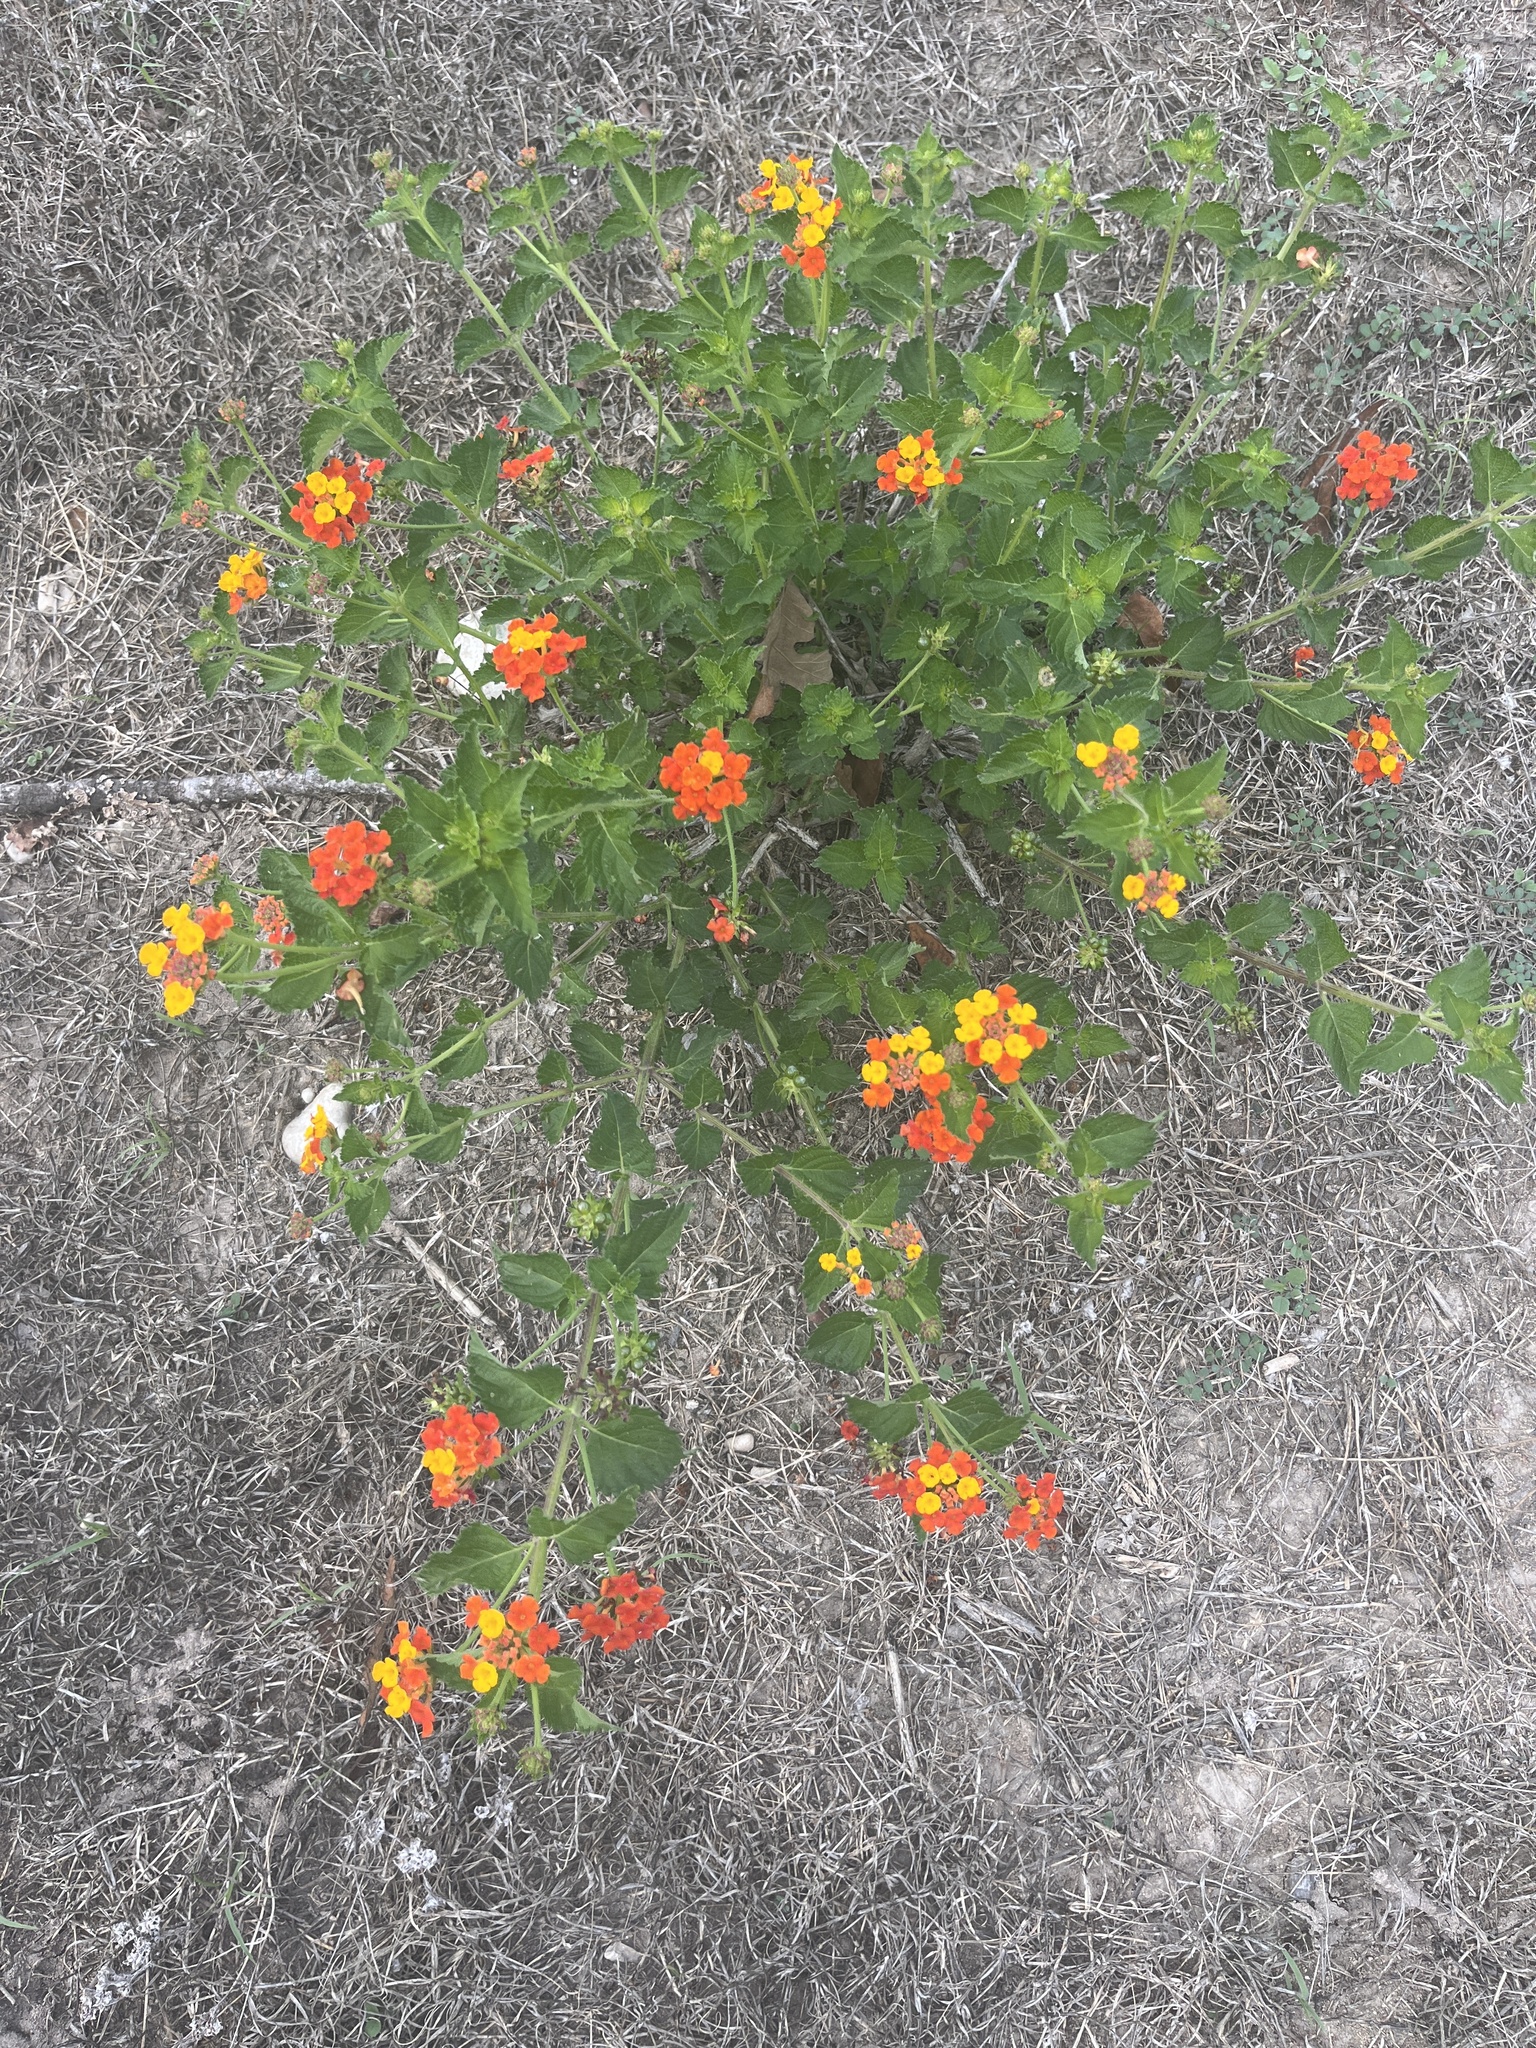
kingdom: Plantae
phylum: Tracheophyta
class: Magnoliopsida
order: Lamiales
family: Verbenaceae
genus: Lantana
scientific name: Lantana urticoides
